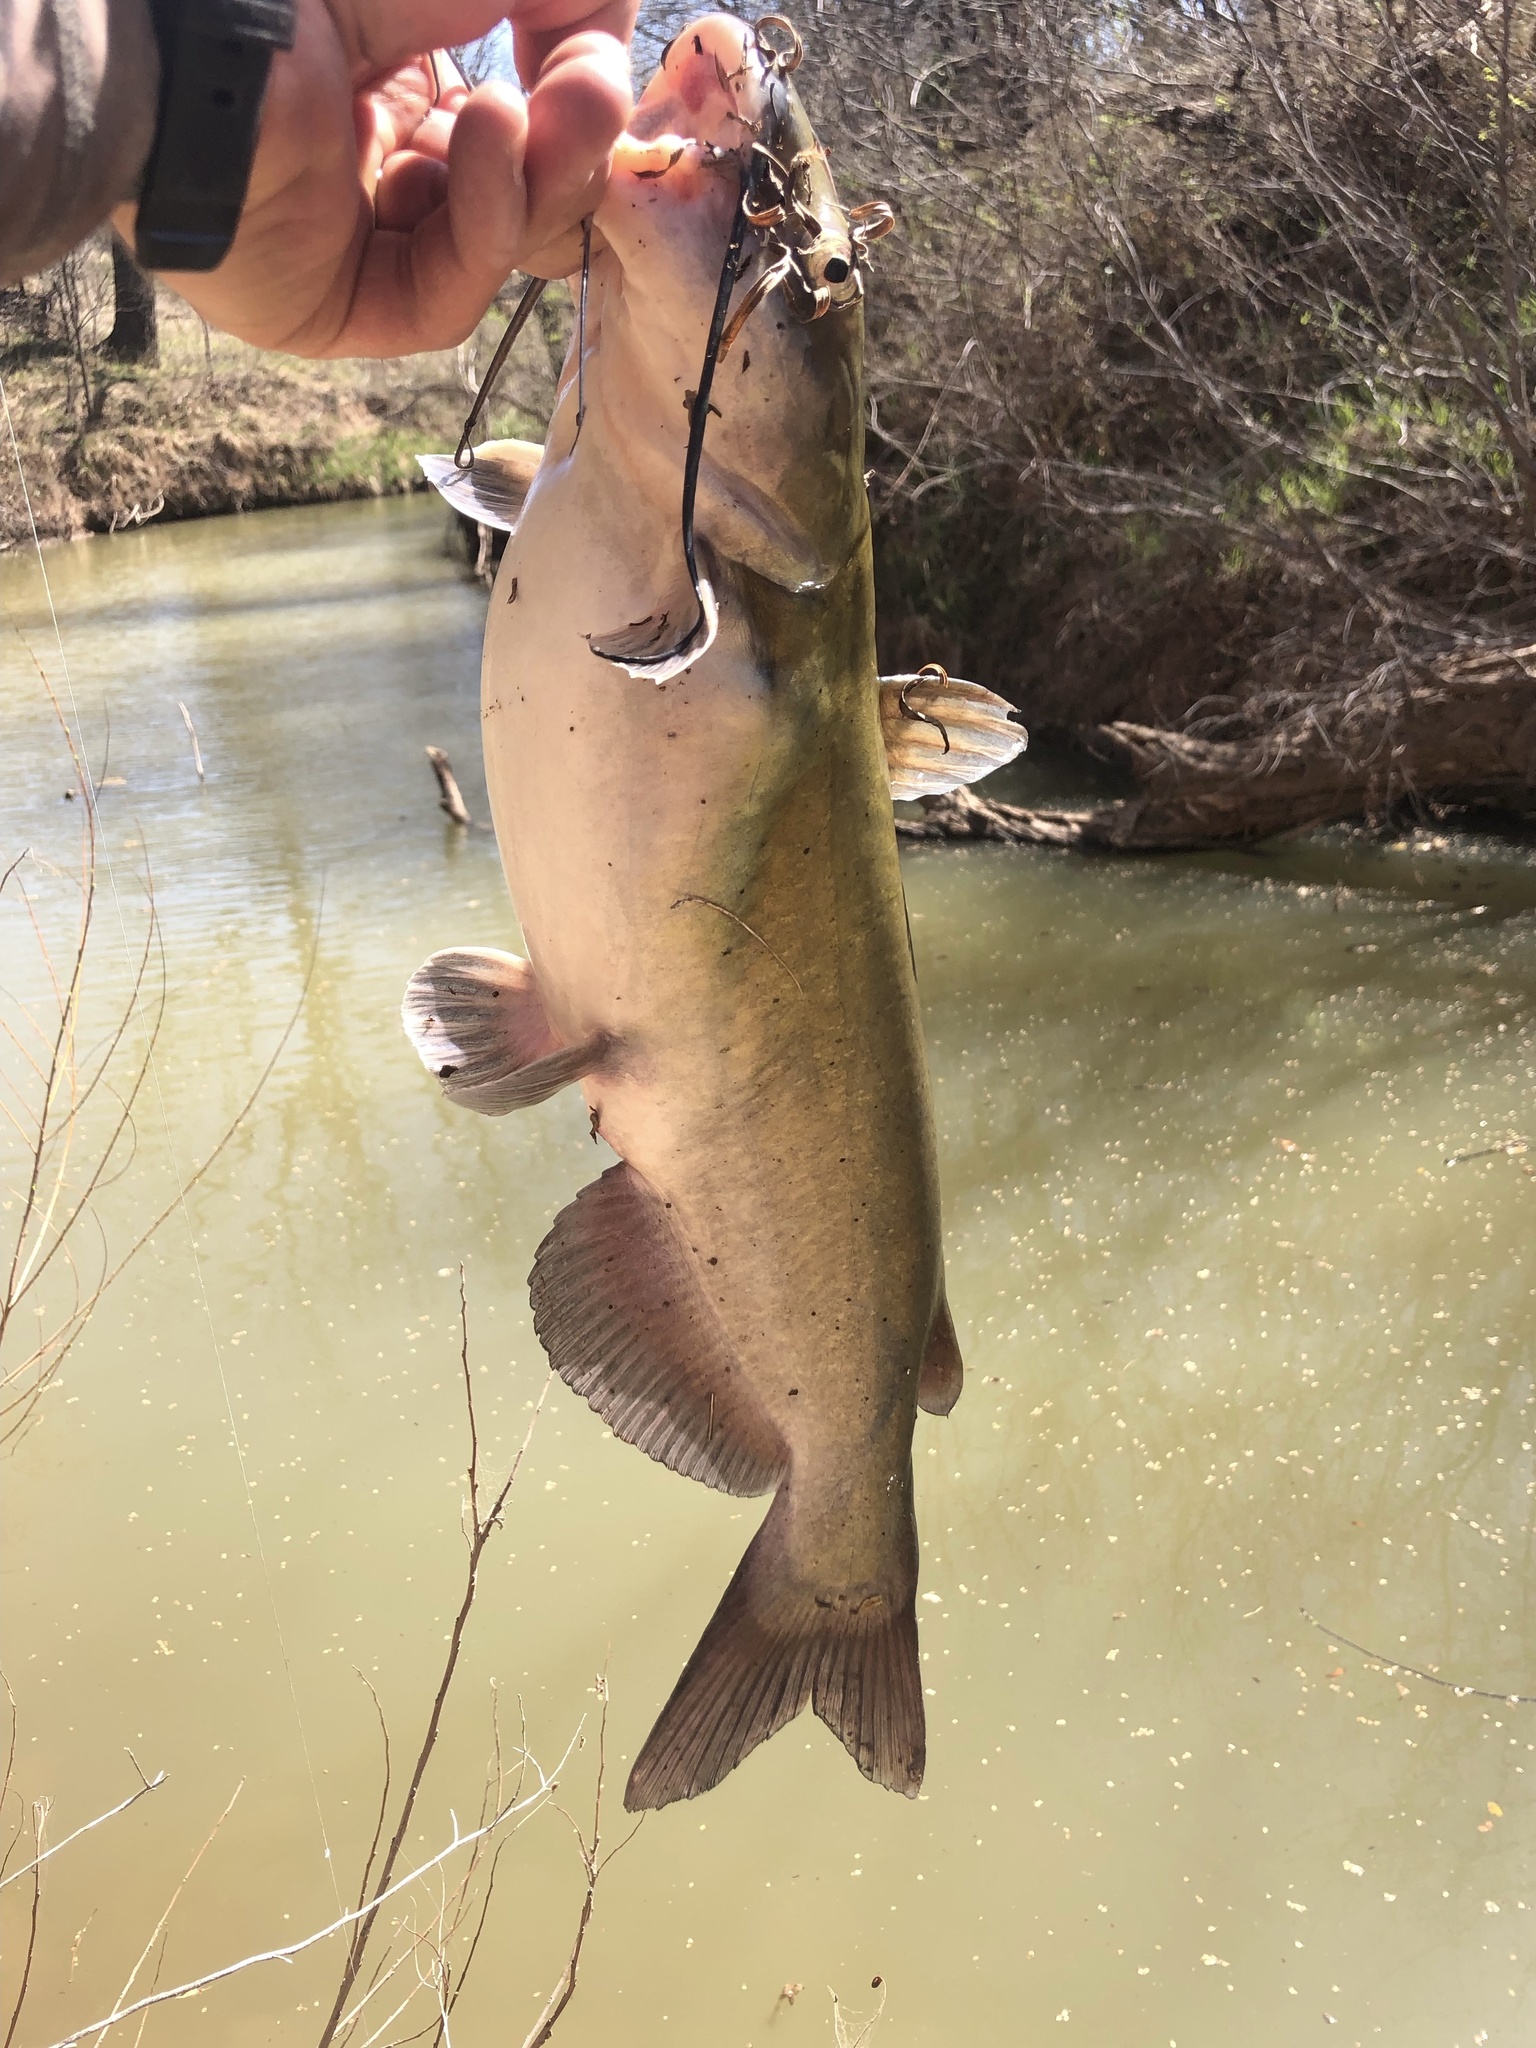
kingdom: Animalia
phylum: Chordata
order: Siluriformes
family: Ictaluridae
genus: Ictalurus
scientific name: Ictalurus punctatus
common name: Channel catfish
